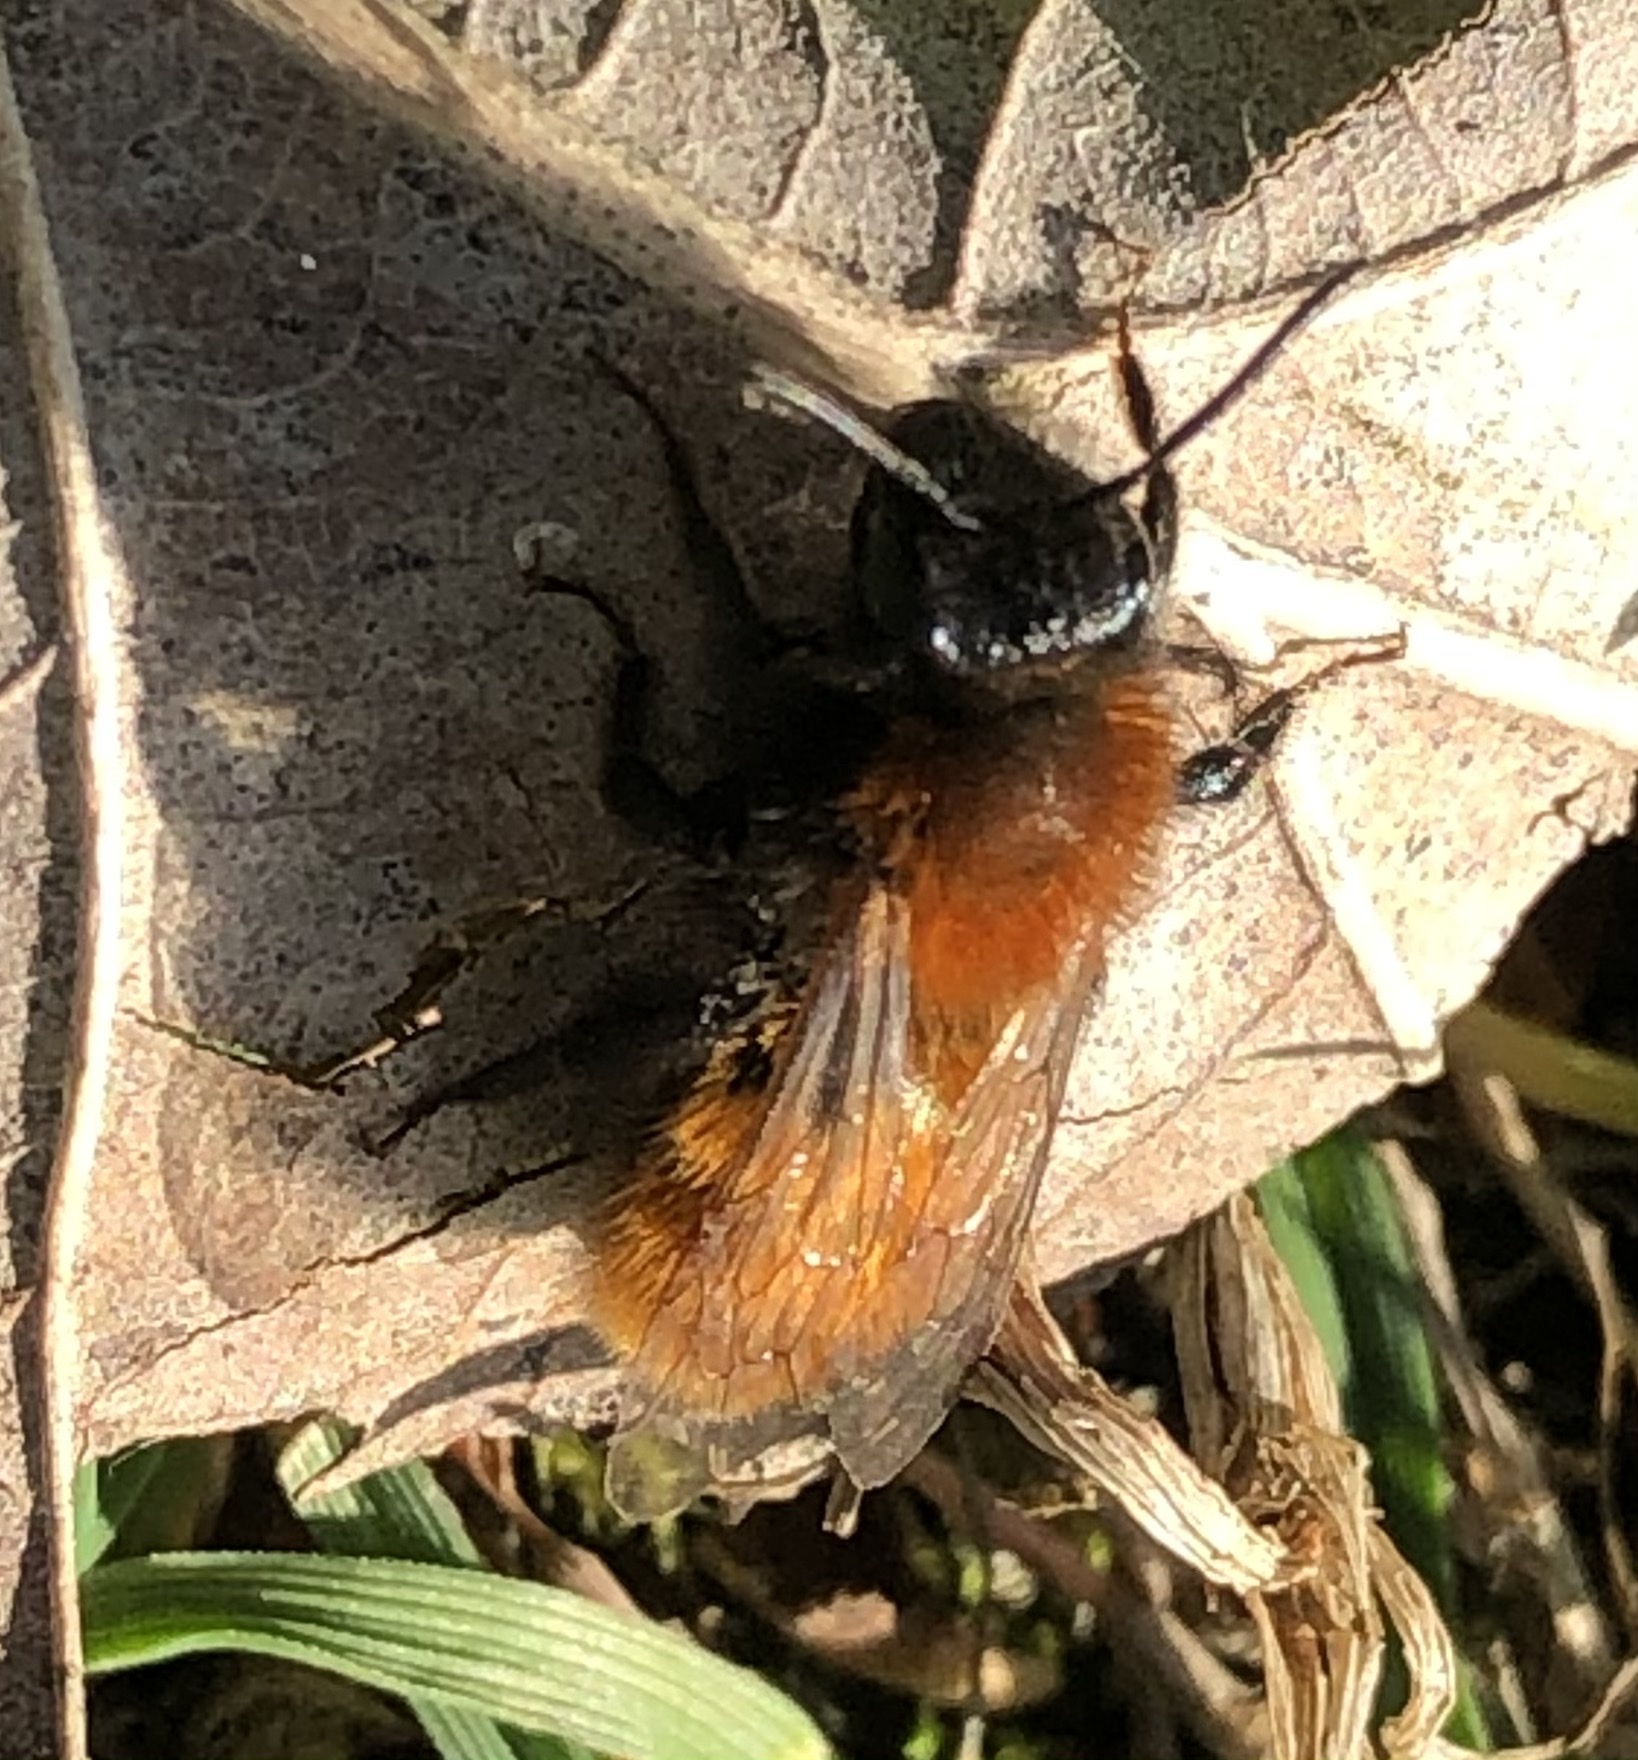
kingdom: Animalia
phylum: Arthropoda
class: Insecta
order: Hymenoptera
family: Andrenidae
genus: Andrena
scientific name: Andrena fulva
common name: Tawny mining bee
